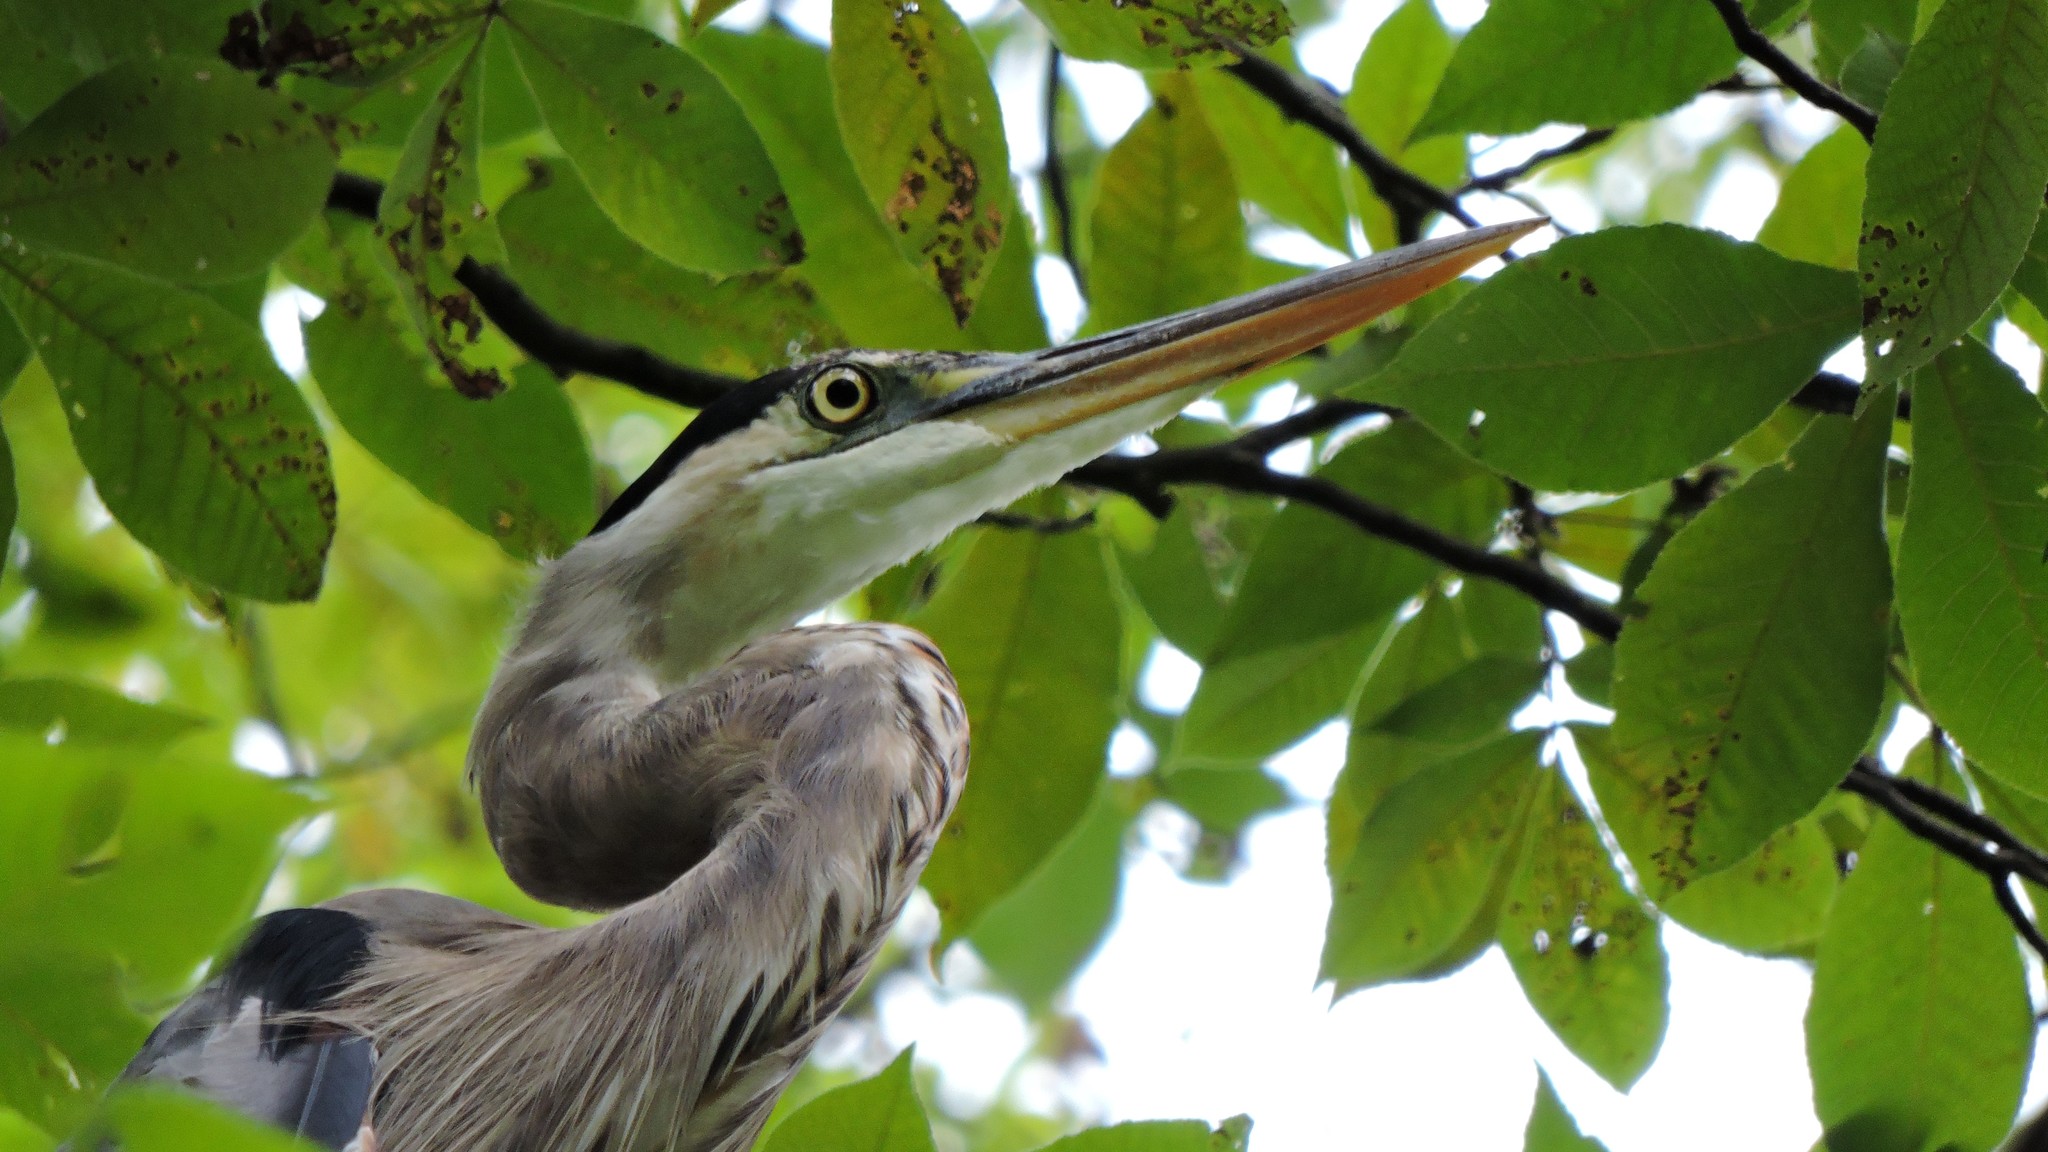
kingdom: Animalia
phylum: Chordata
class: Aves
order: Pelecaniformes
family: Ardeidae
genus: Ardea
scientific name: Ardea herodias
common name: Great blue heron
